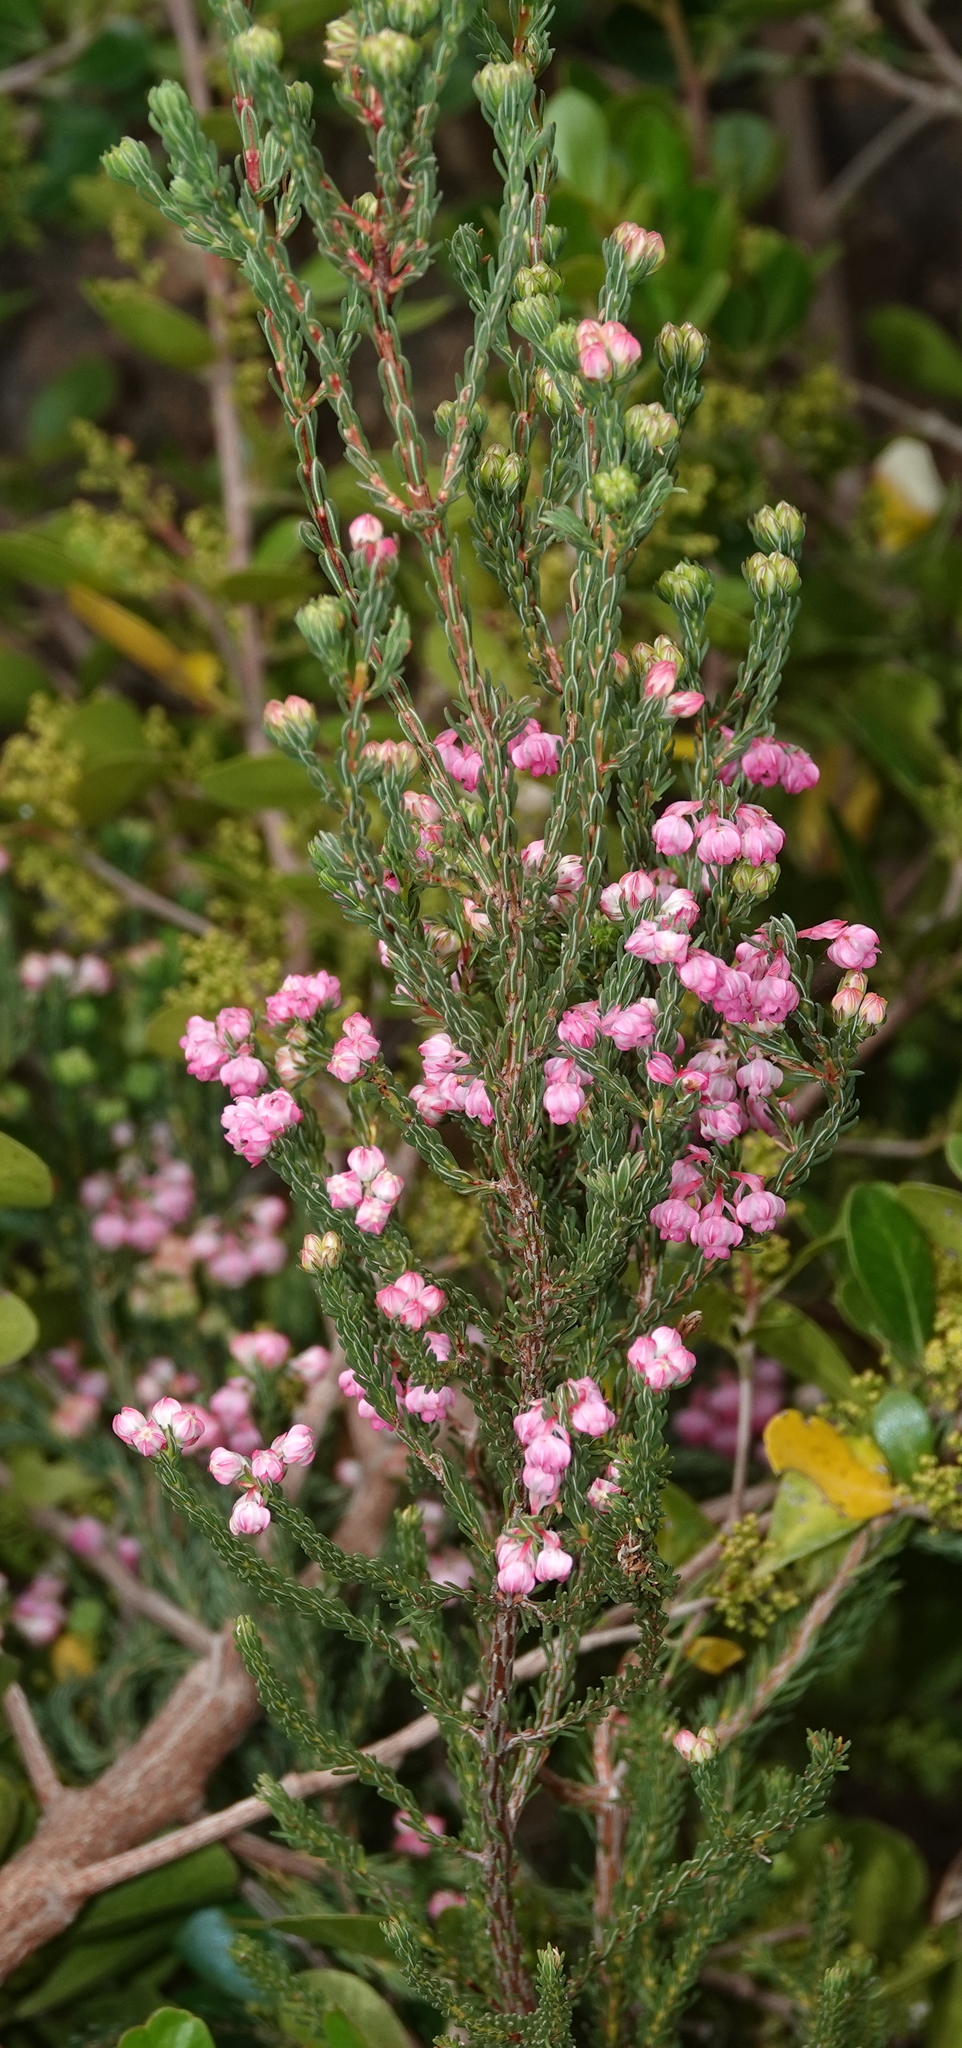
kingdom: Plantae
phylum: Tracheophyta
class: Magnoliopsida
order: Ericales
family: Ericaceae
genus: Erica
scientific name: Erica baccans
